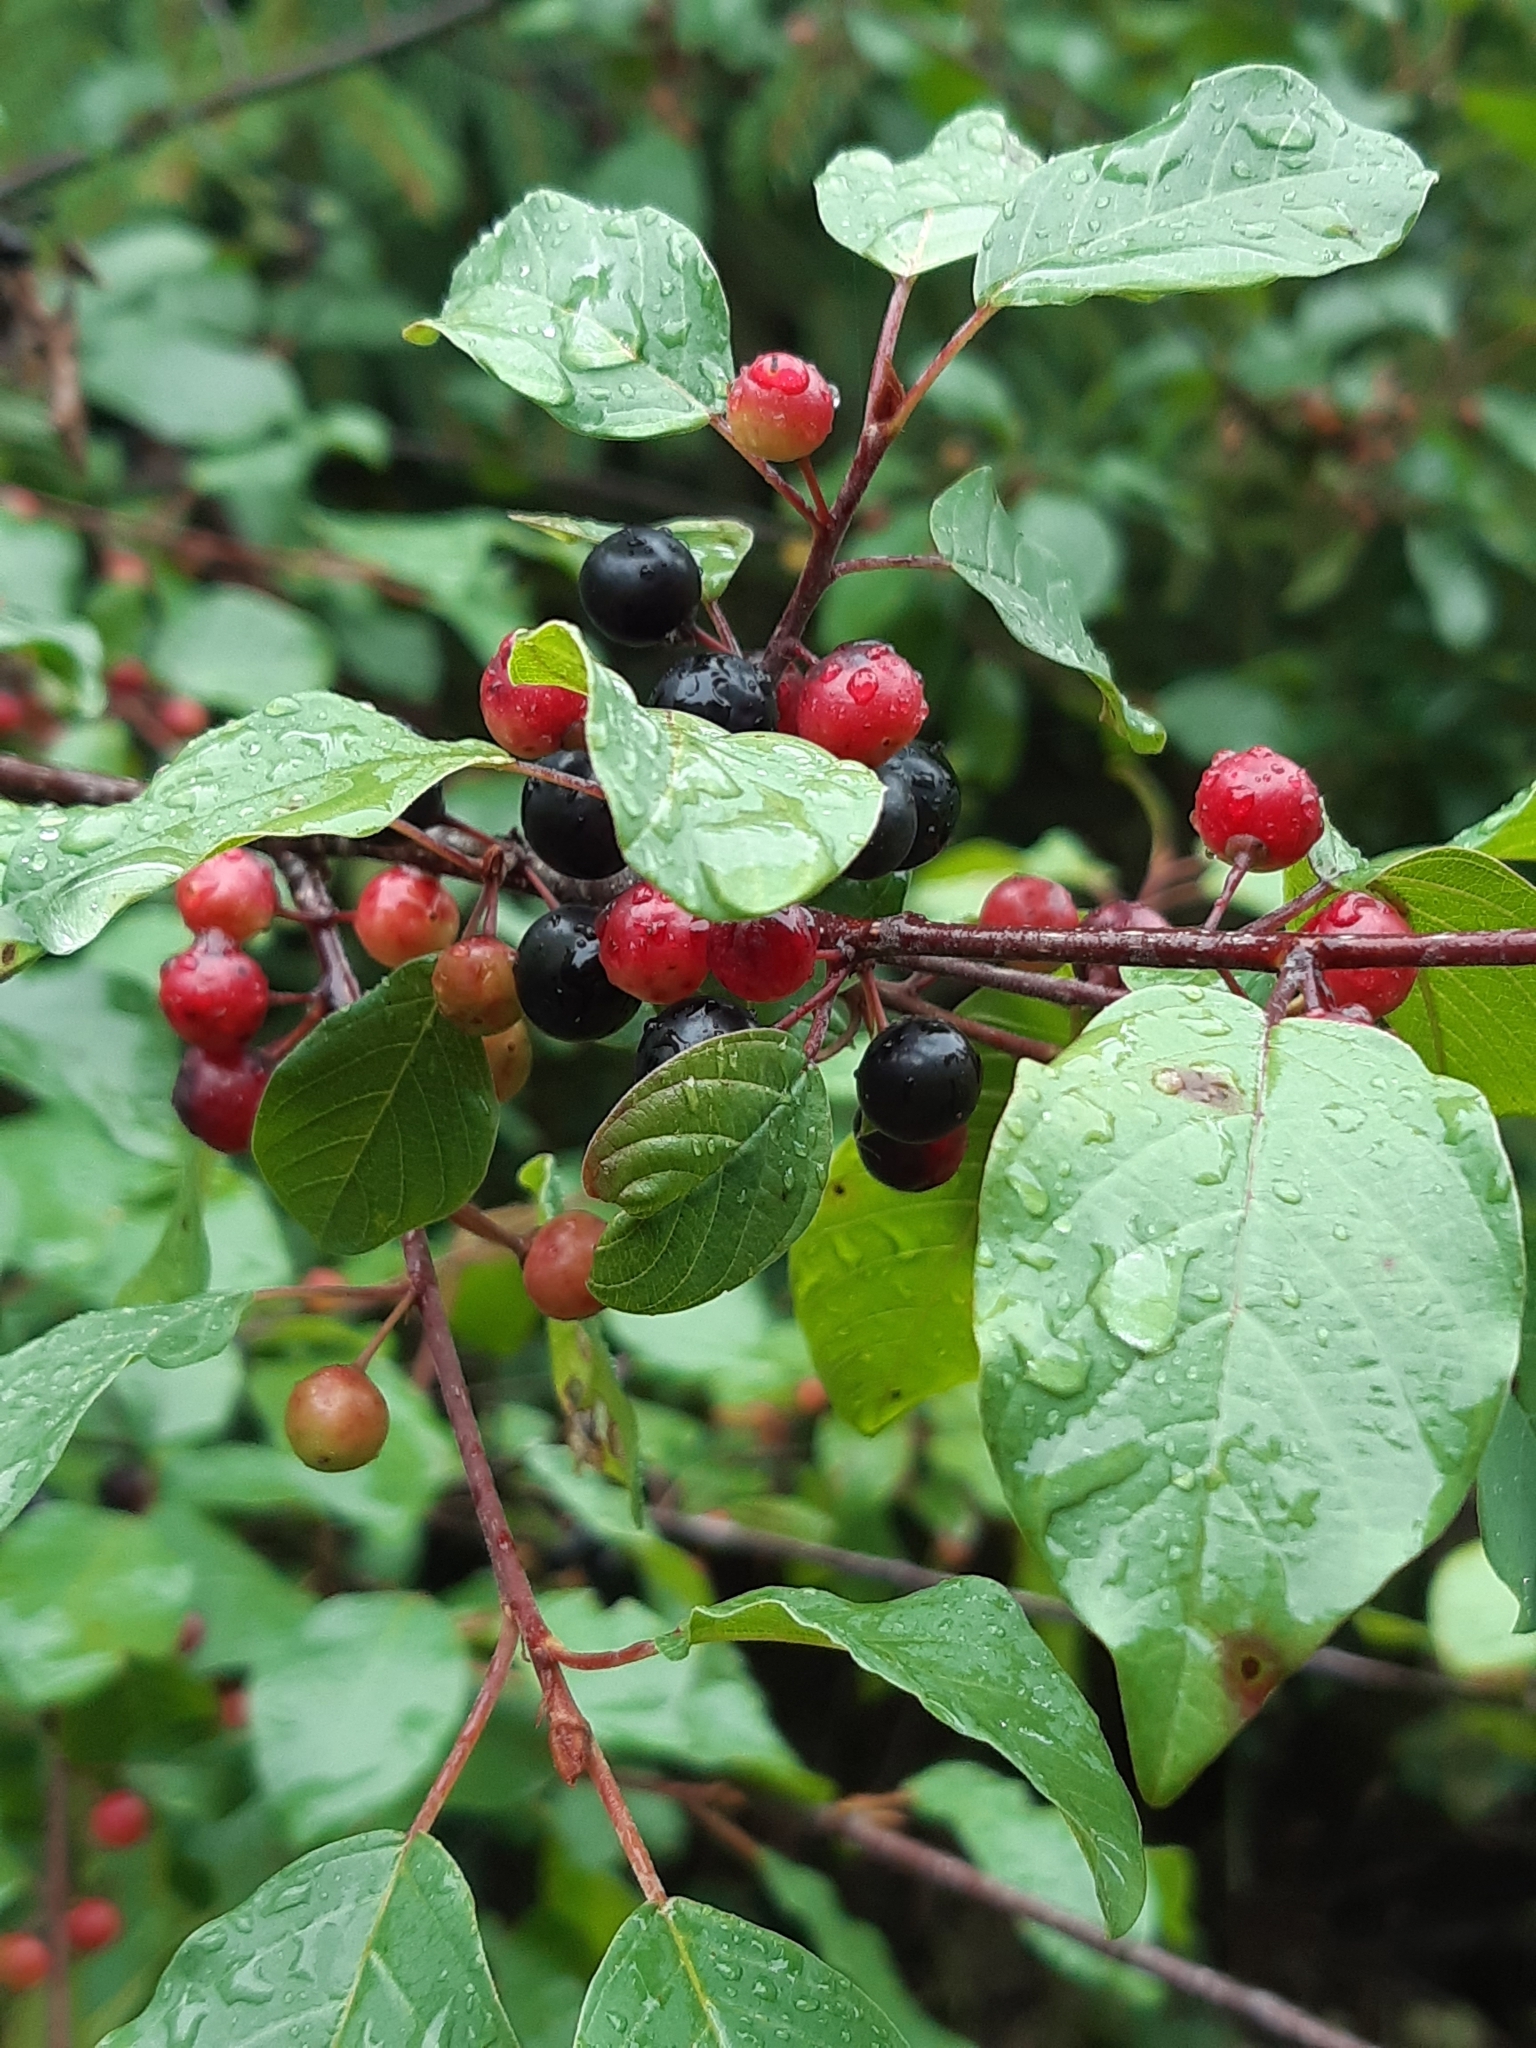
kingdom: Plantae
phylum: Tracheophyta
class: Magnoliopsida
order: Rosales
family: Rhamnaceae
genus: Frangula
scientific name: Frangula alnus
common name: Alder buckthorn
